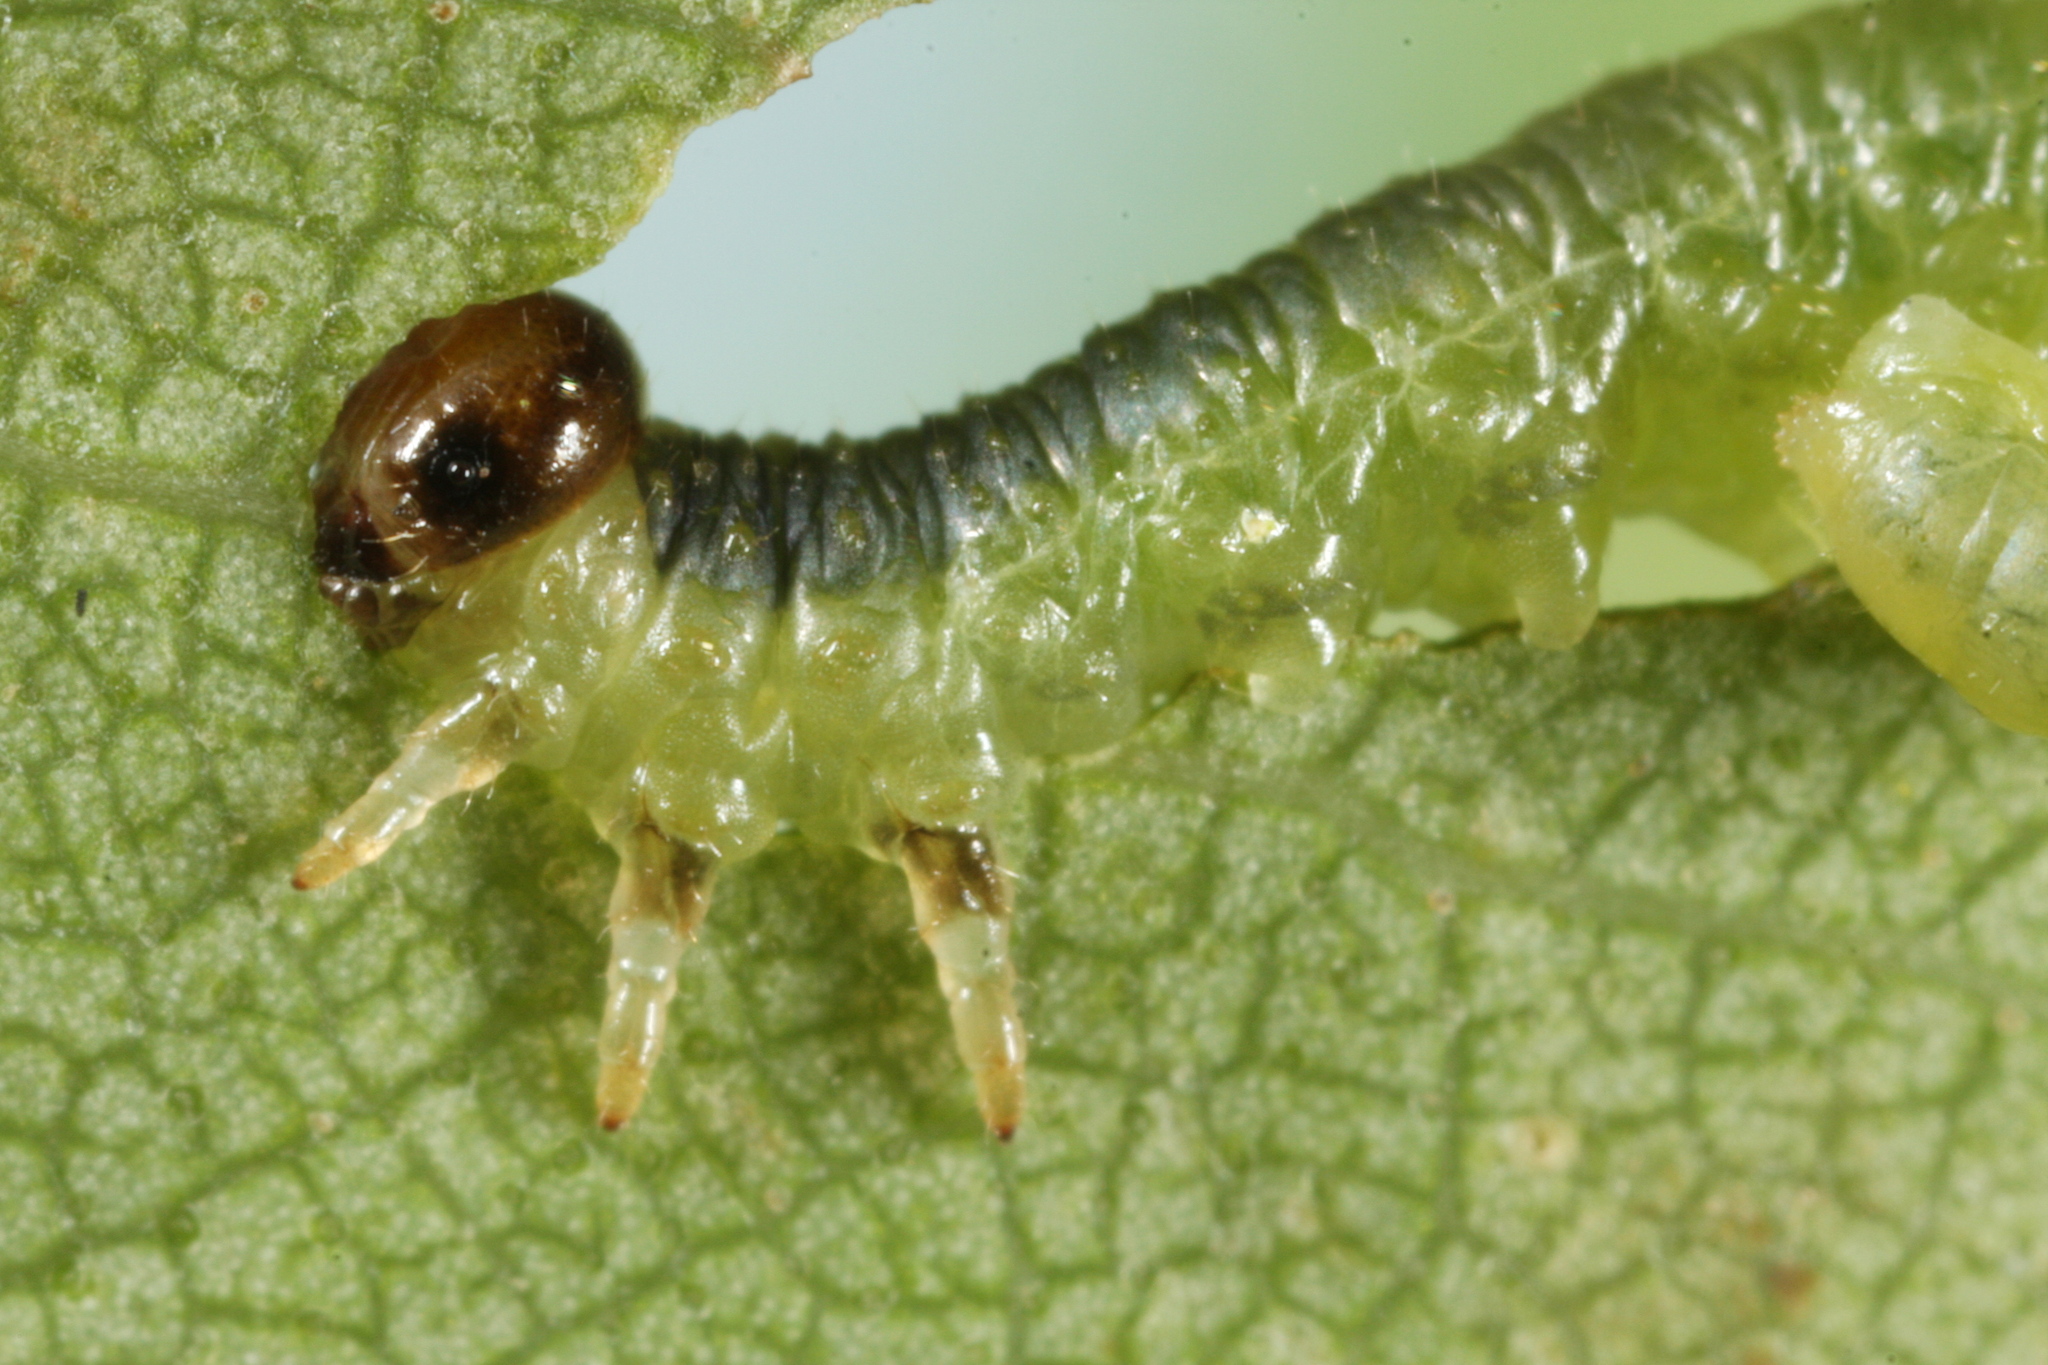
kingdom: Animalia
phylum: Arthropoda
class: Insecta
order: Hymenoptera
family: Tenthredinidae
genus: Hemichroa
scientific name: Hemichroa australis
